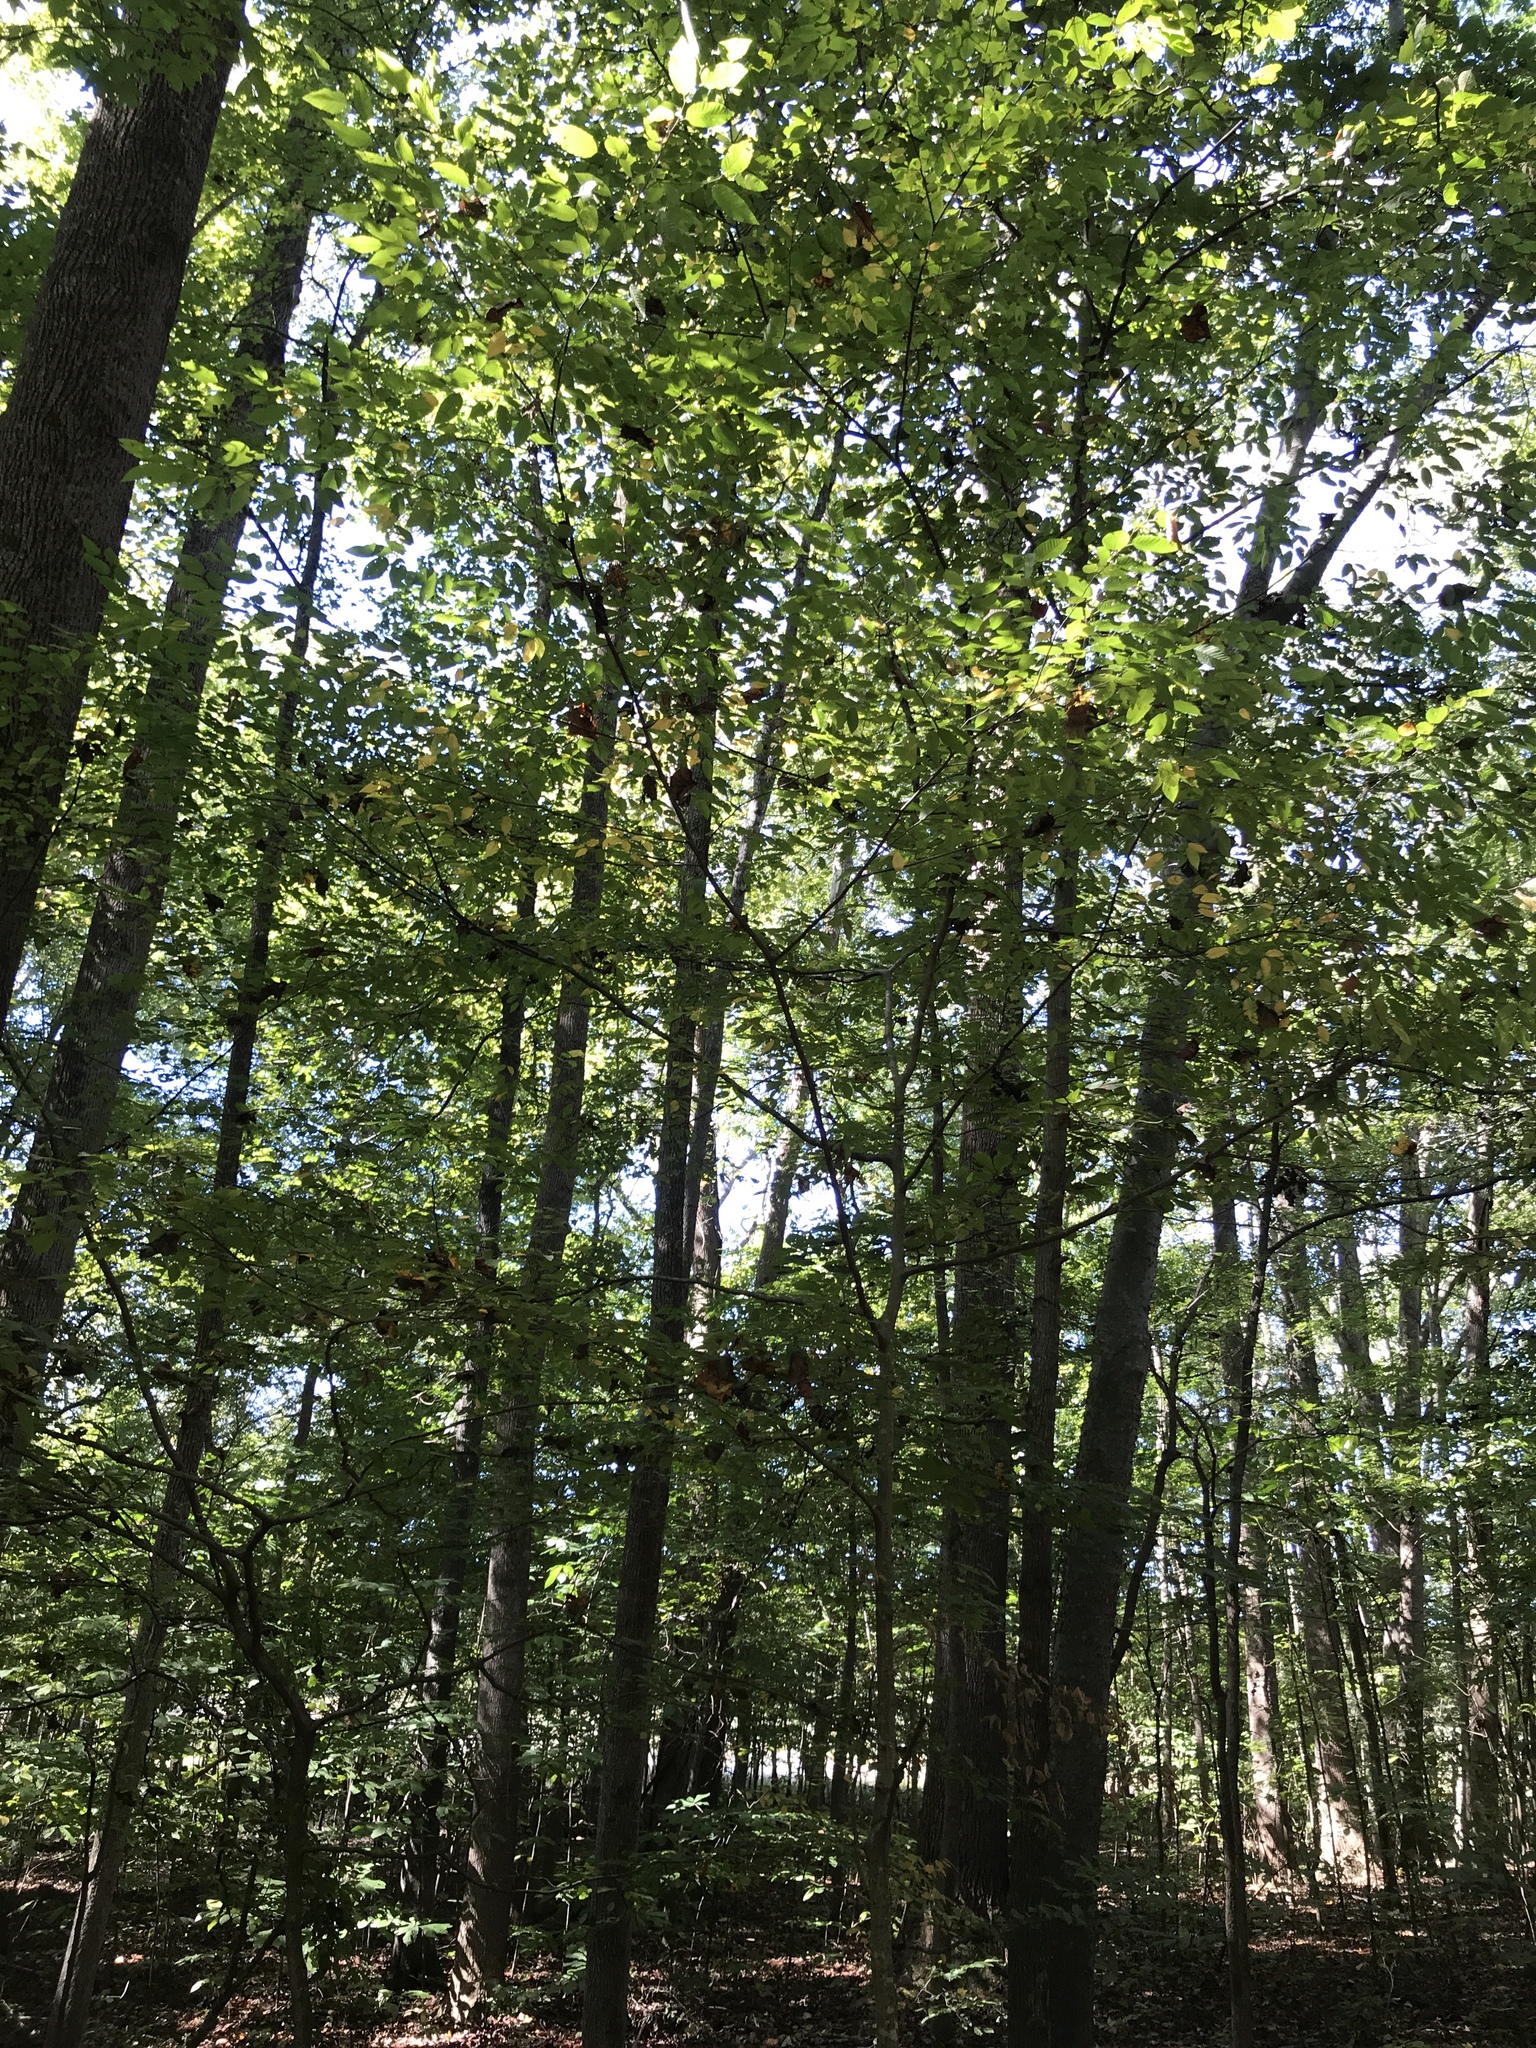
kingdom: Plantae
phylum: Tracheophyta
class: Magnoliopsida
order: Fagales
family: Betulaceae
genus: Carpinus
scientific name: Carpinus caroliniana
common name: American hornbeam
